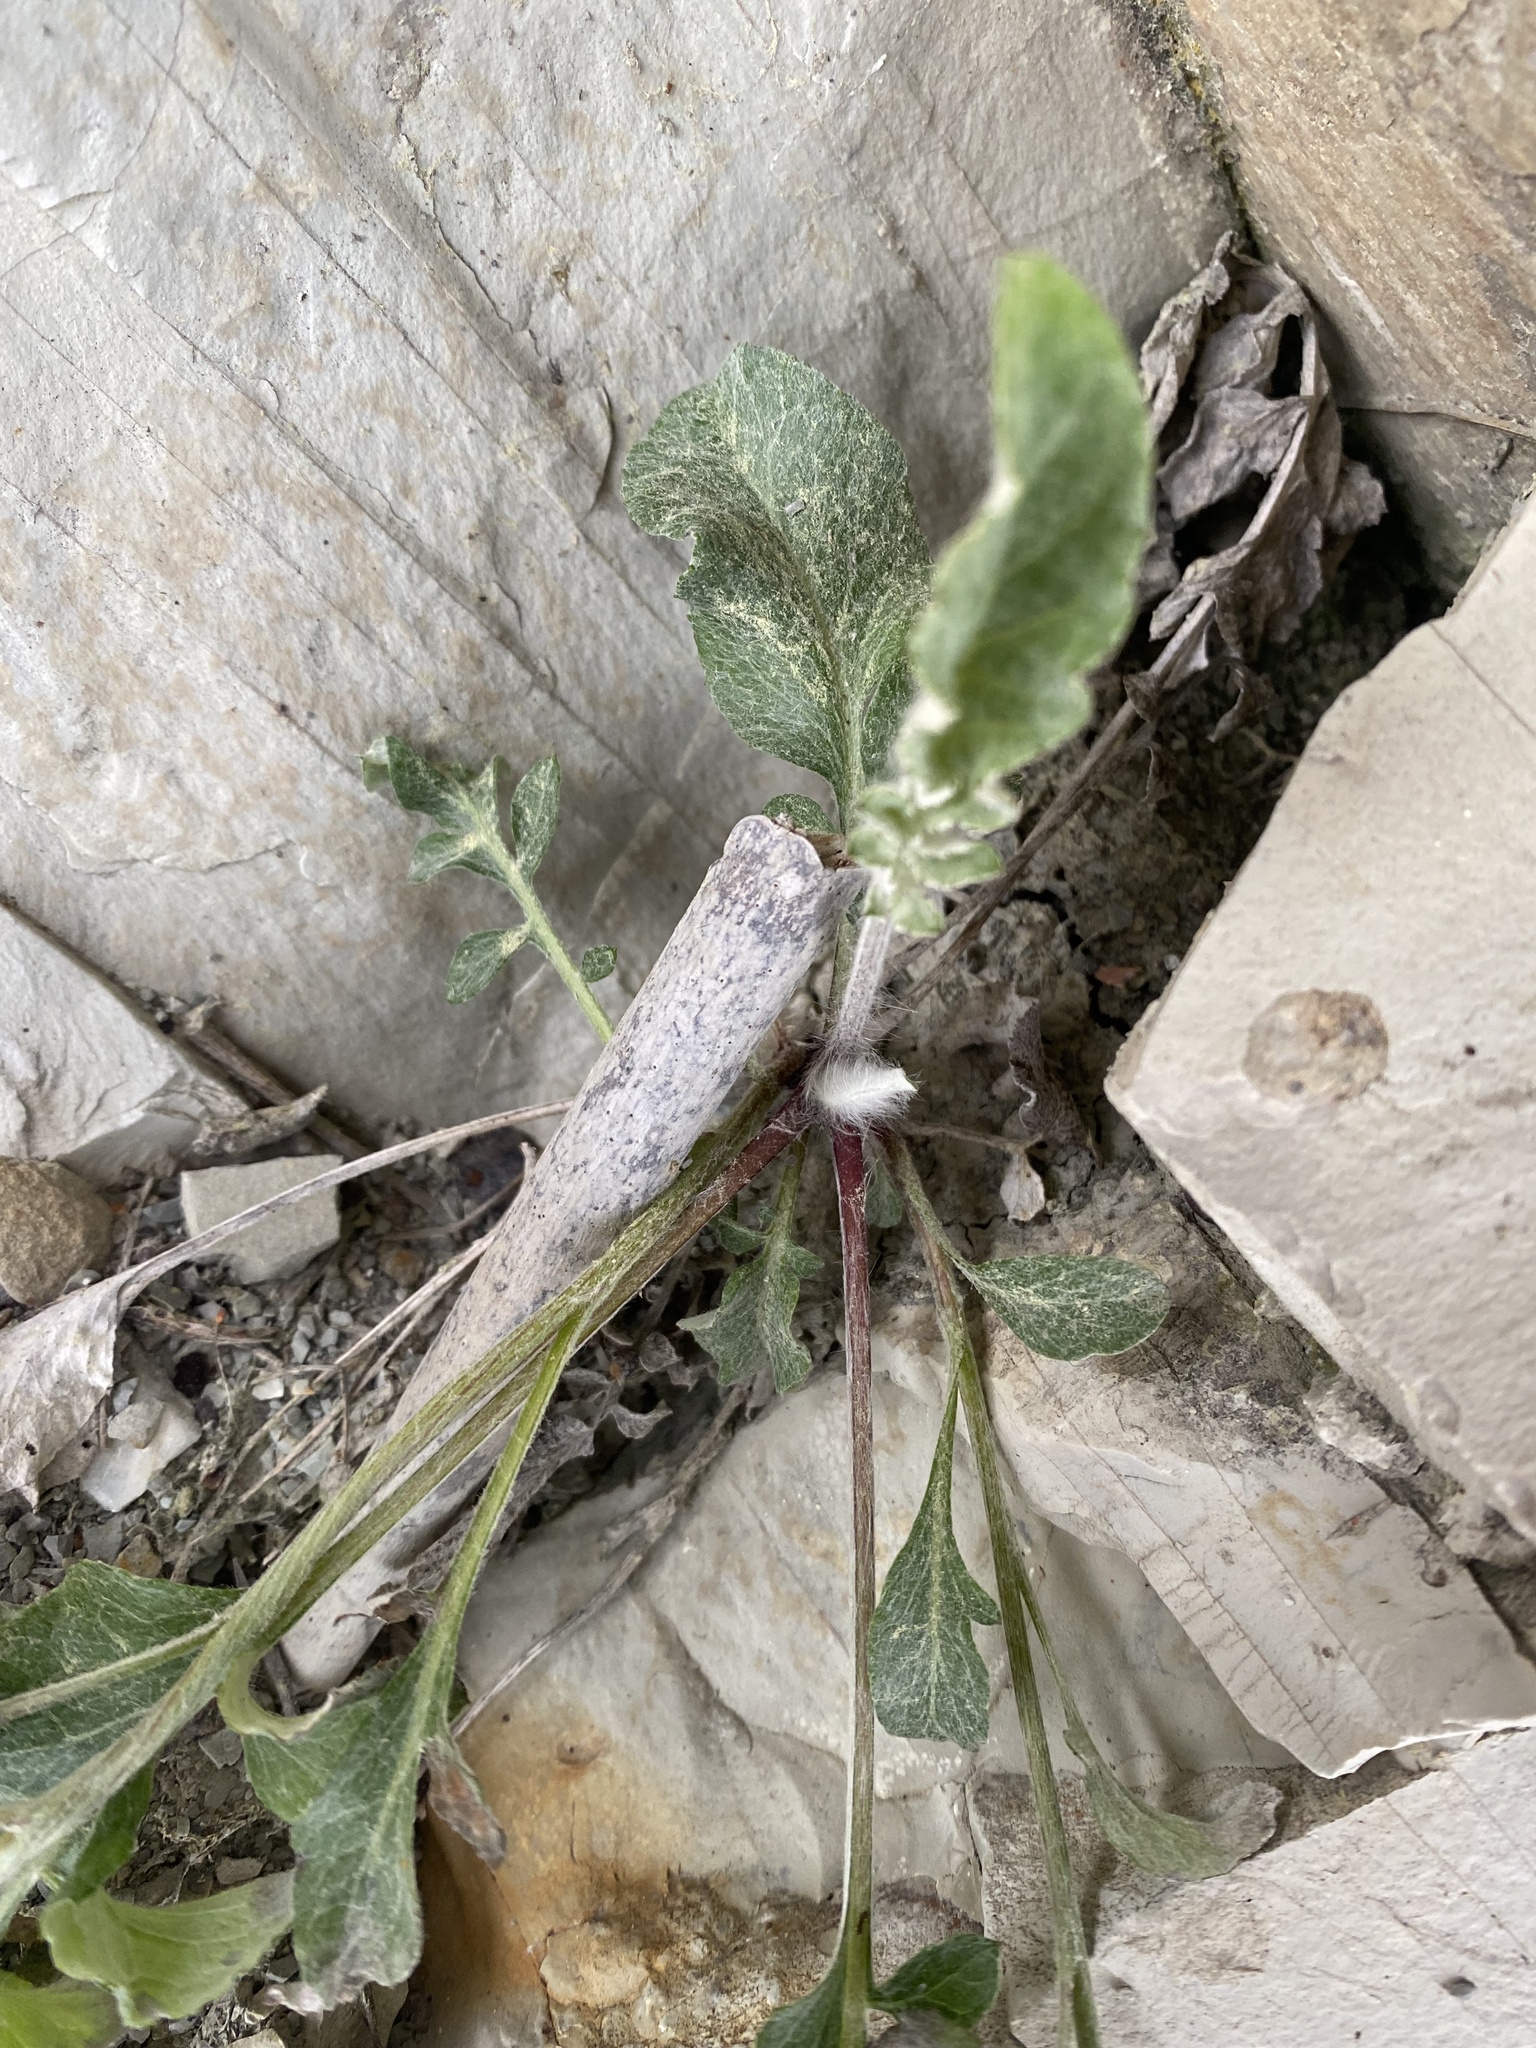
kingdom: Plantae
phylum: Tracheophyta
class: Magnoliopsida
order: Asterales
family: Asteraceae
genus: Psephellus
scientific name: Psephellus declinatus
